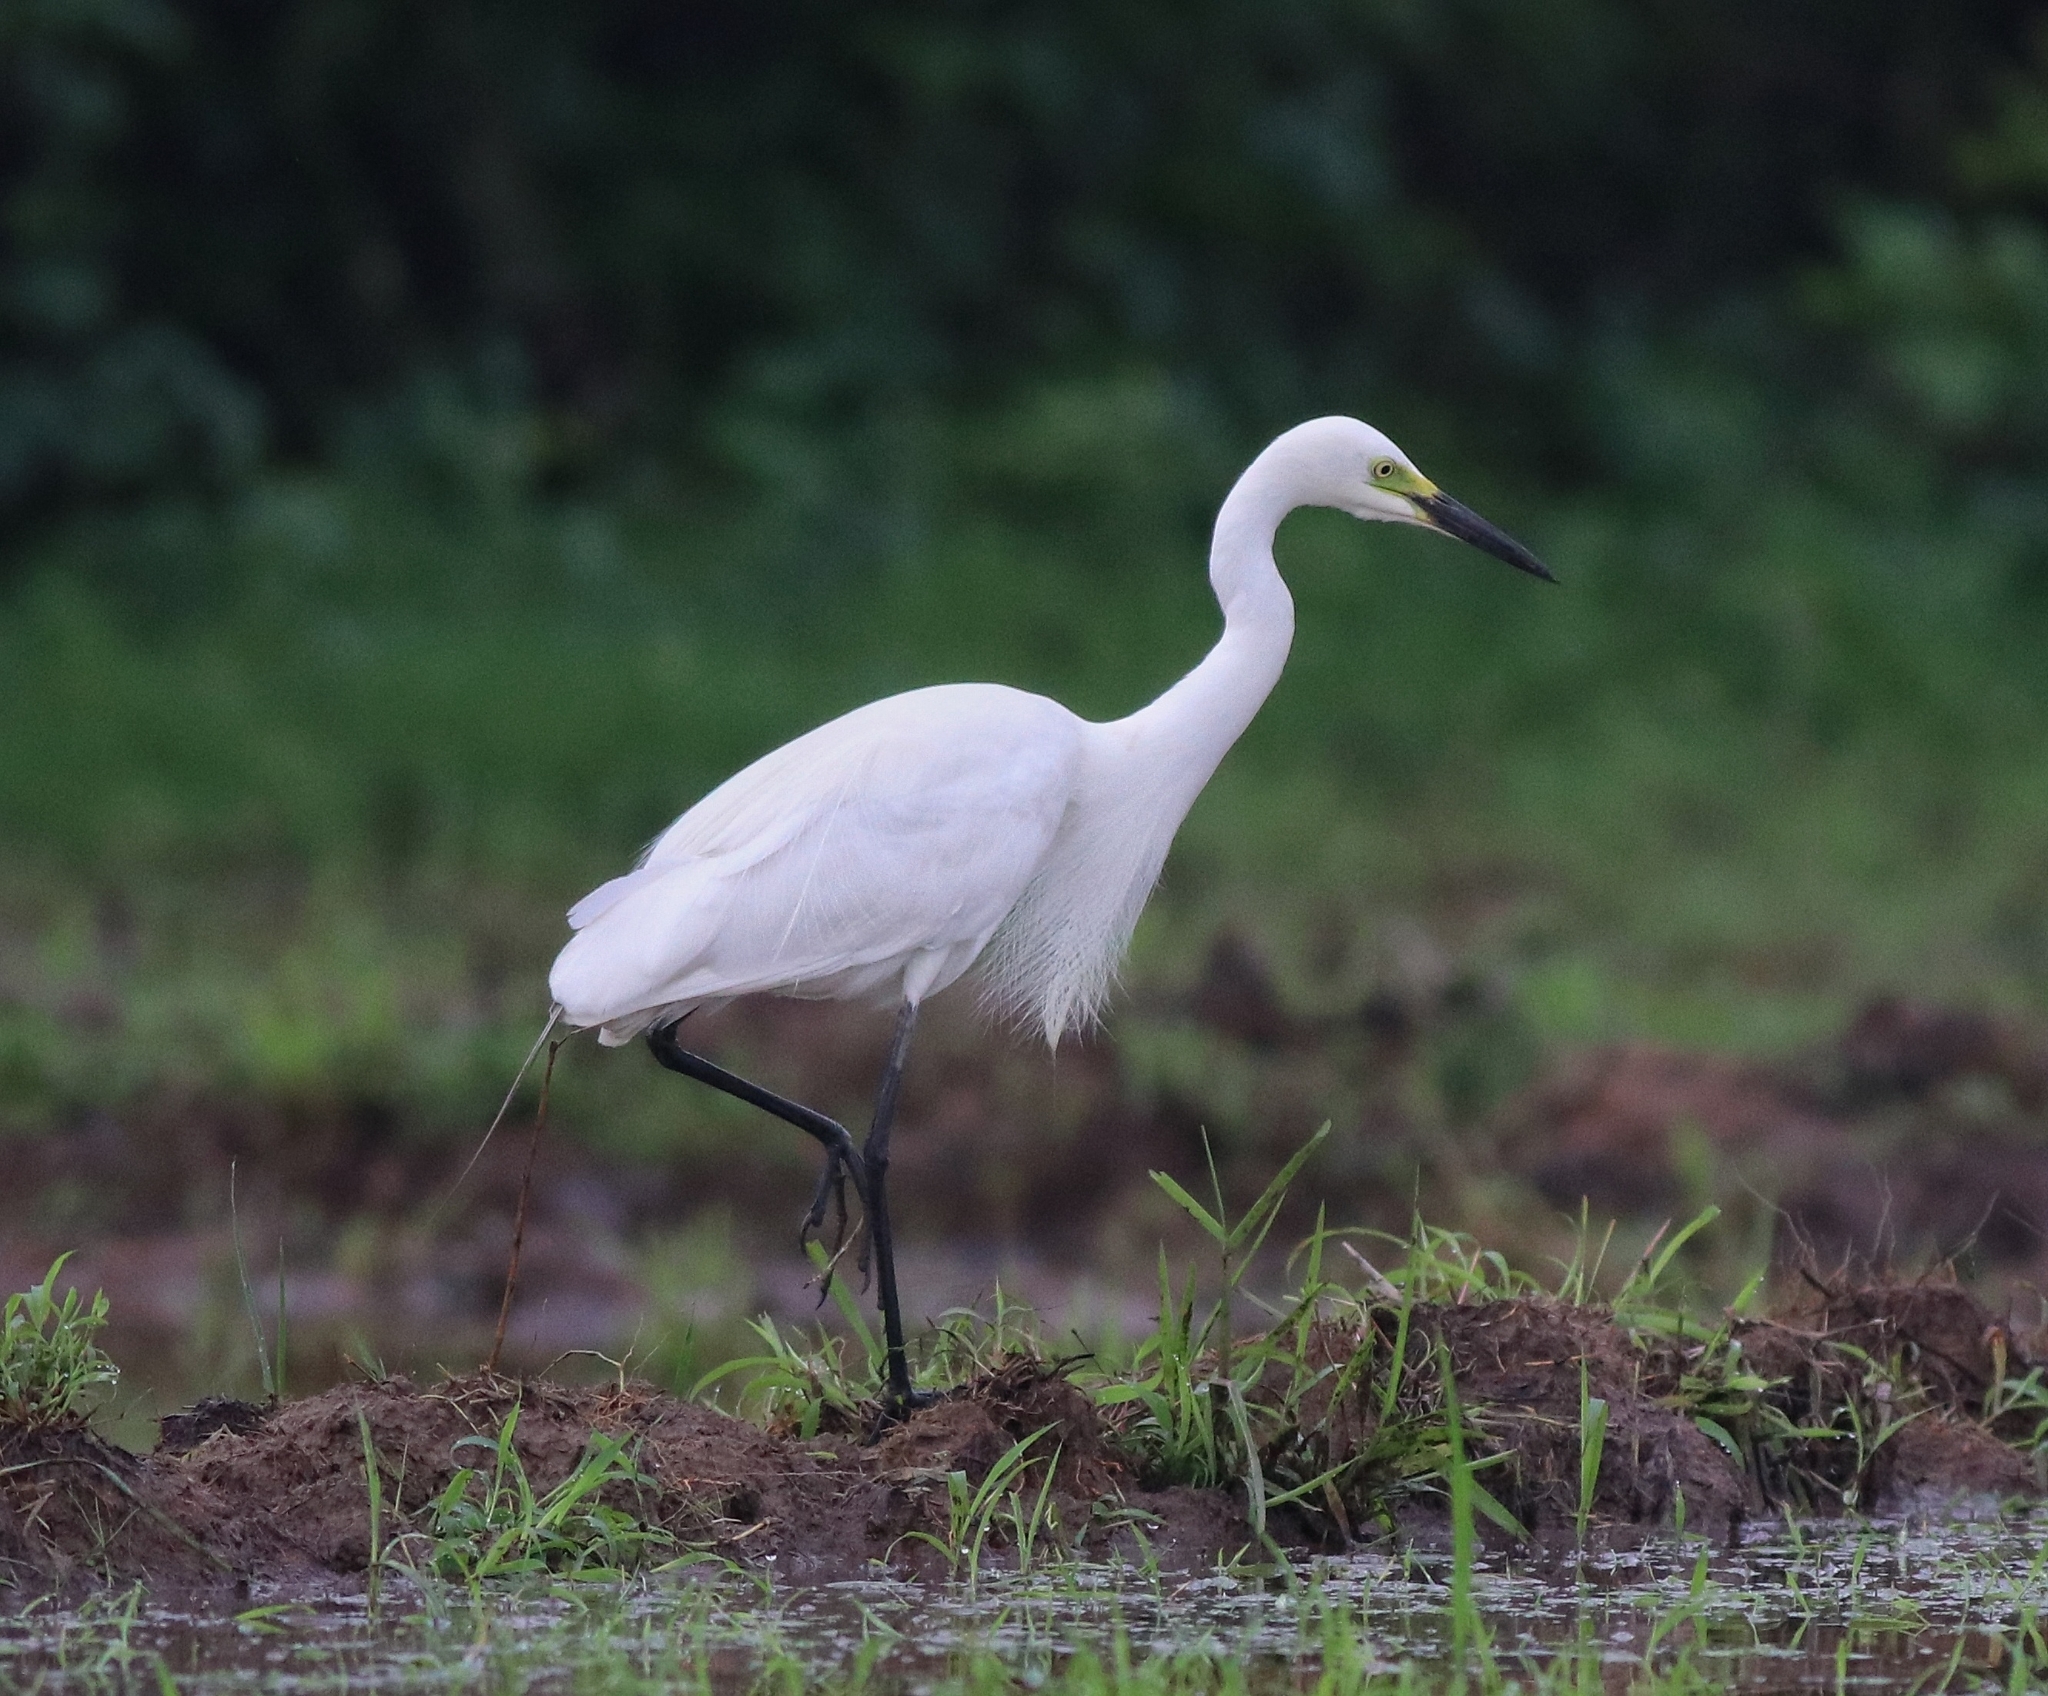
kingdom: Animalia
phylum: Chordata
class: Aves
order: Pelecaniformes
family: Ardeidae
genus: Egretta
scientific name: Egretta intermedia
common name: Intermediate egret
